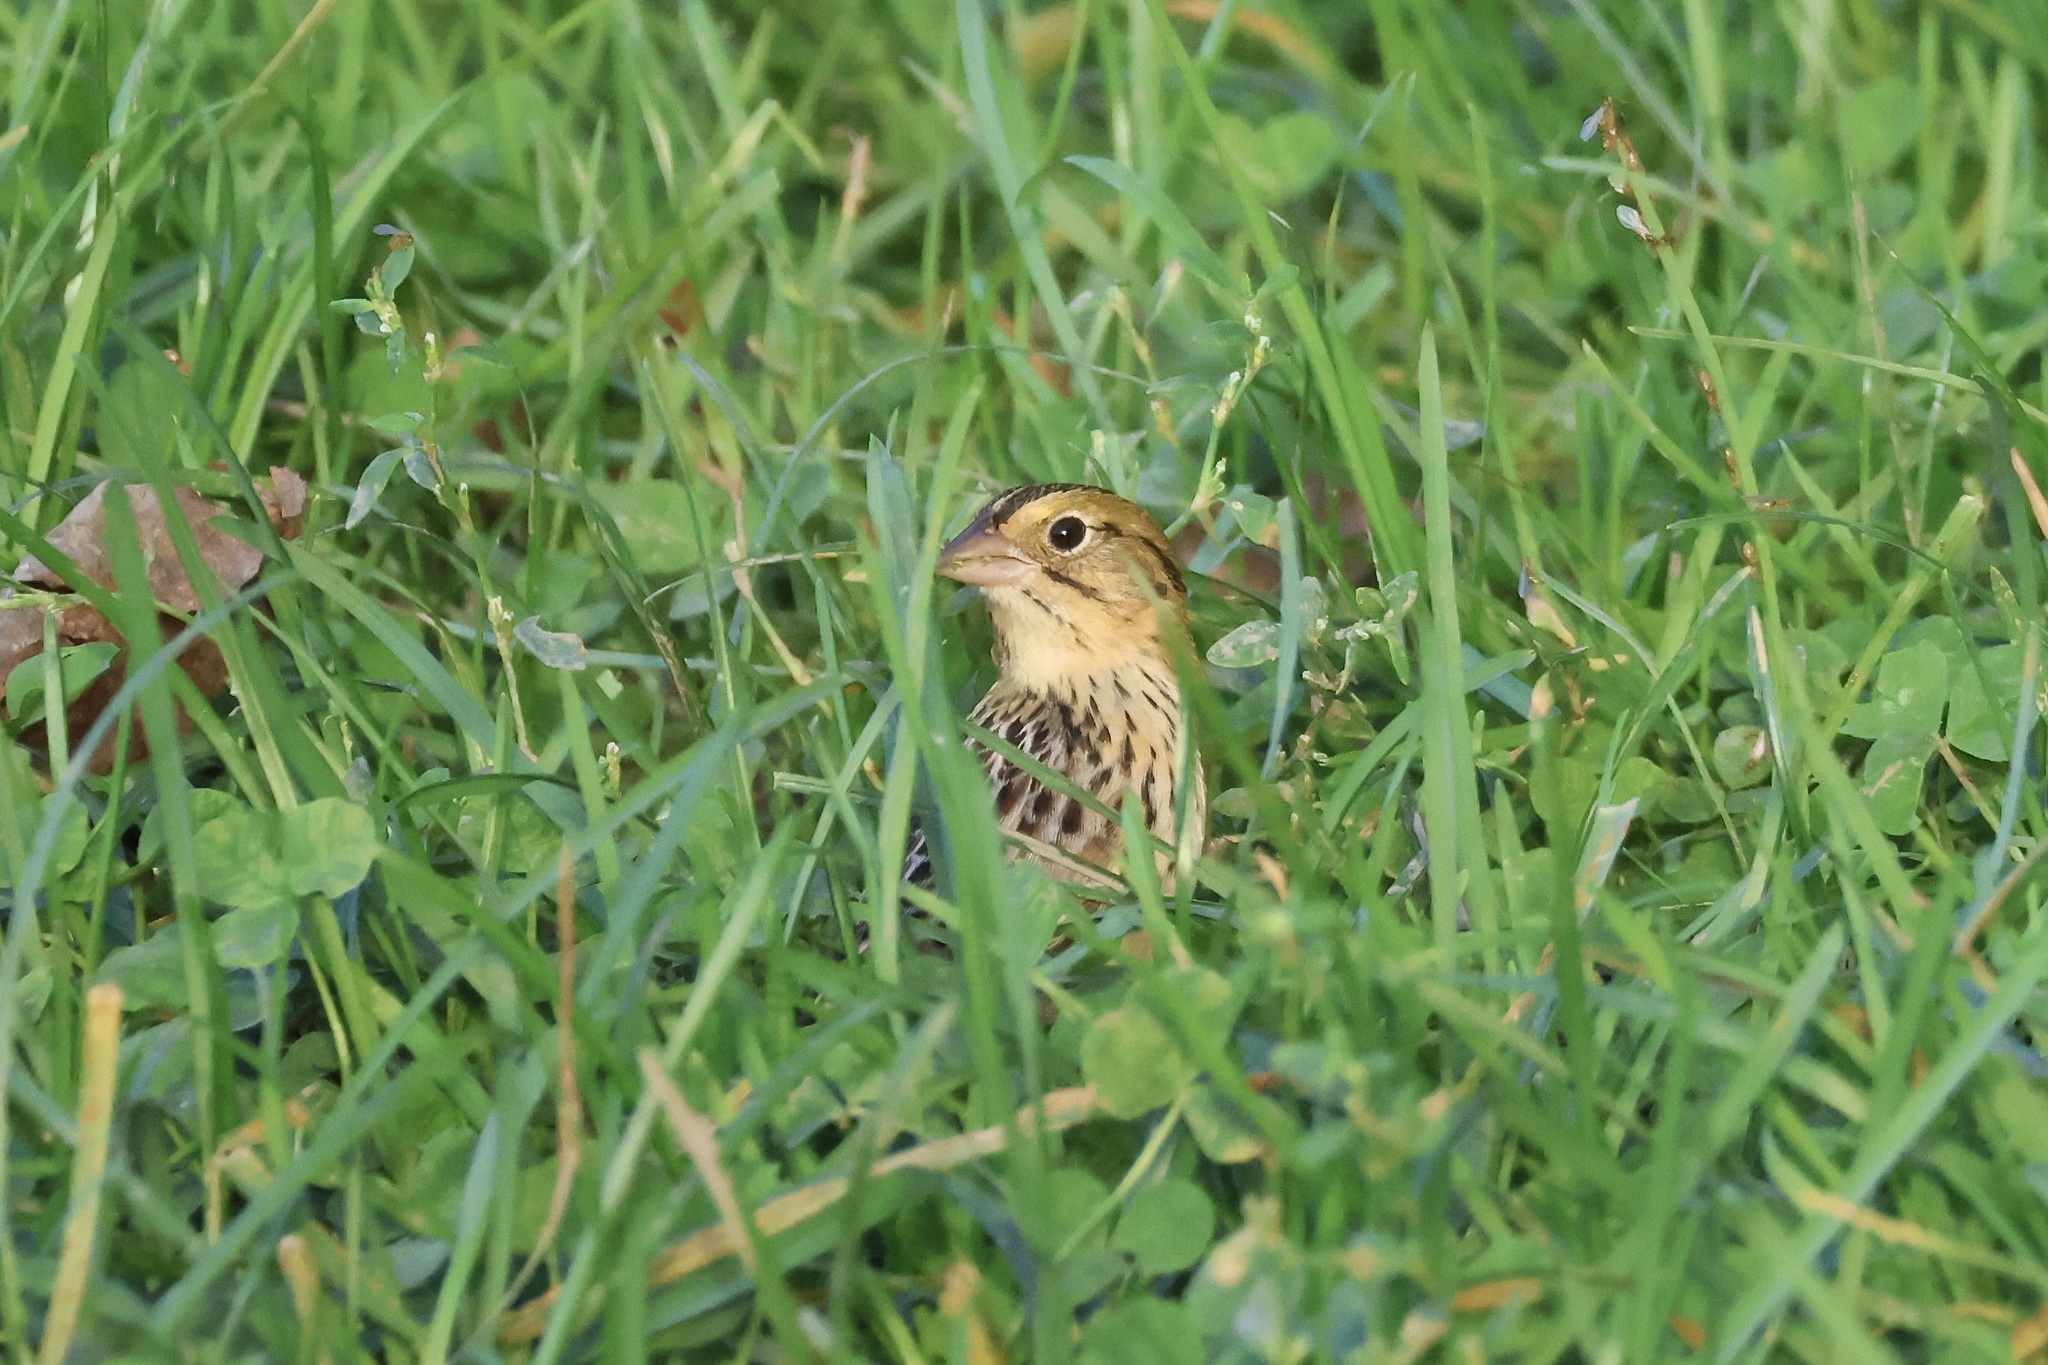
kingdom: Animalia
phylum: Chordata
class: Aves
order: Passeriformes
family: Passerellidae
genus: Centronyx
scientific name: Centronyx henslowii
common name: Henslow's sparrow
